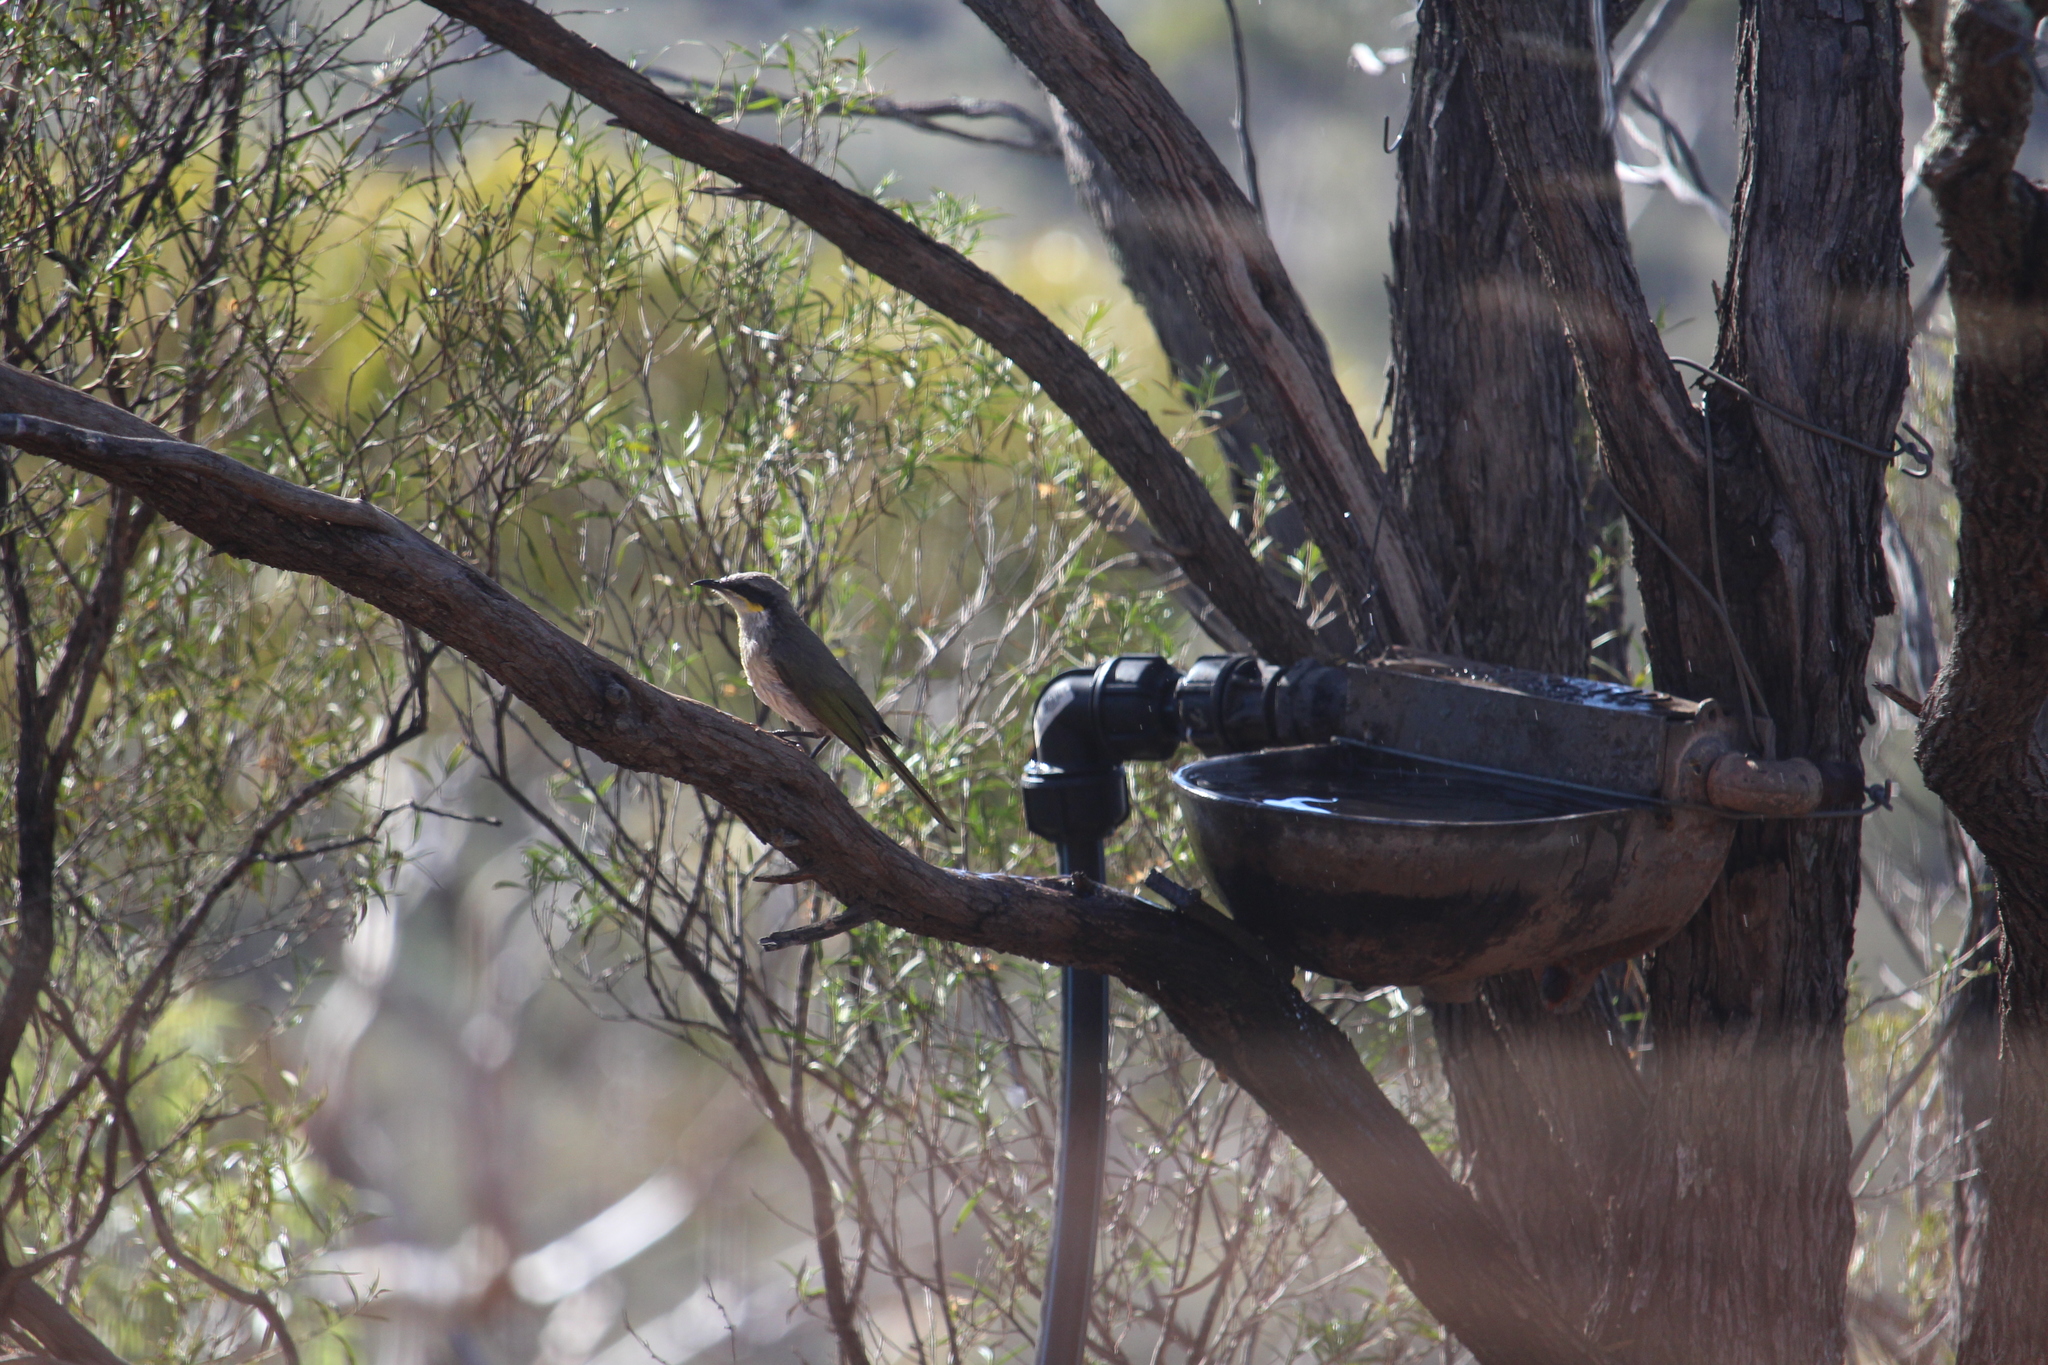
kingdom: Animalia
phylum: Chordata
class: Aves
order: Passeriformes
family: Meliphagidae
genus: Gavicalis
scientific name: Gavicalis virescens
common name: Singing honeyeater
